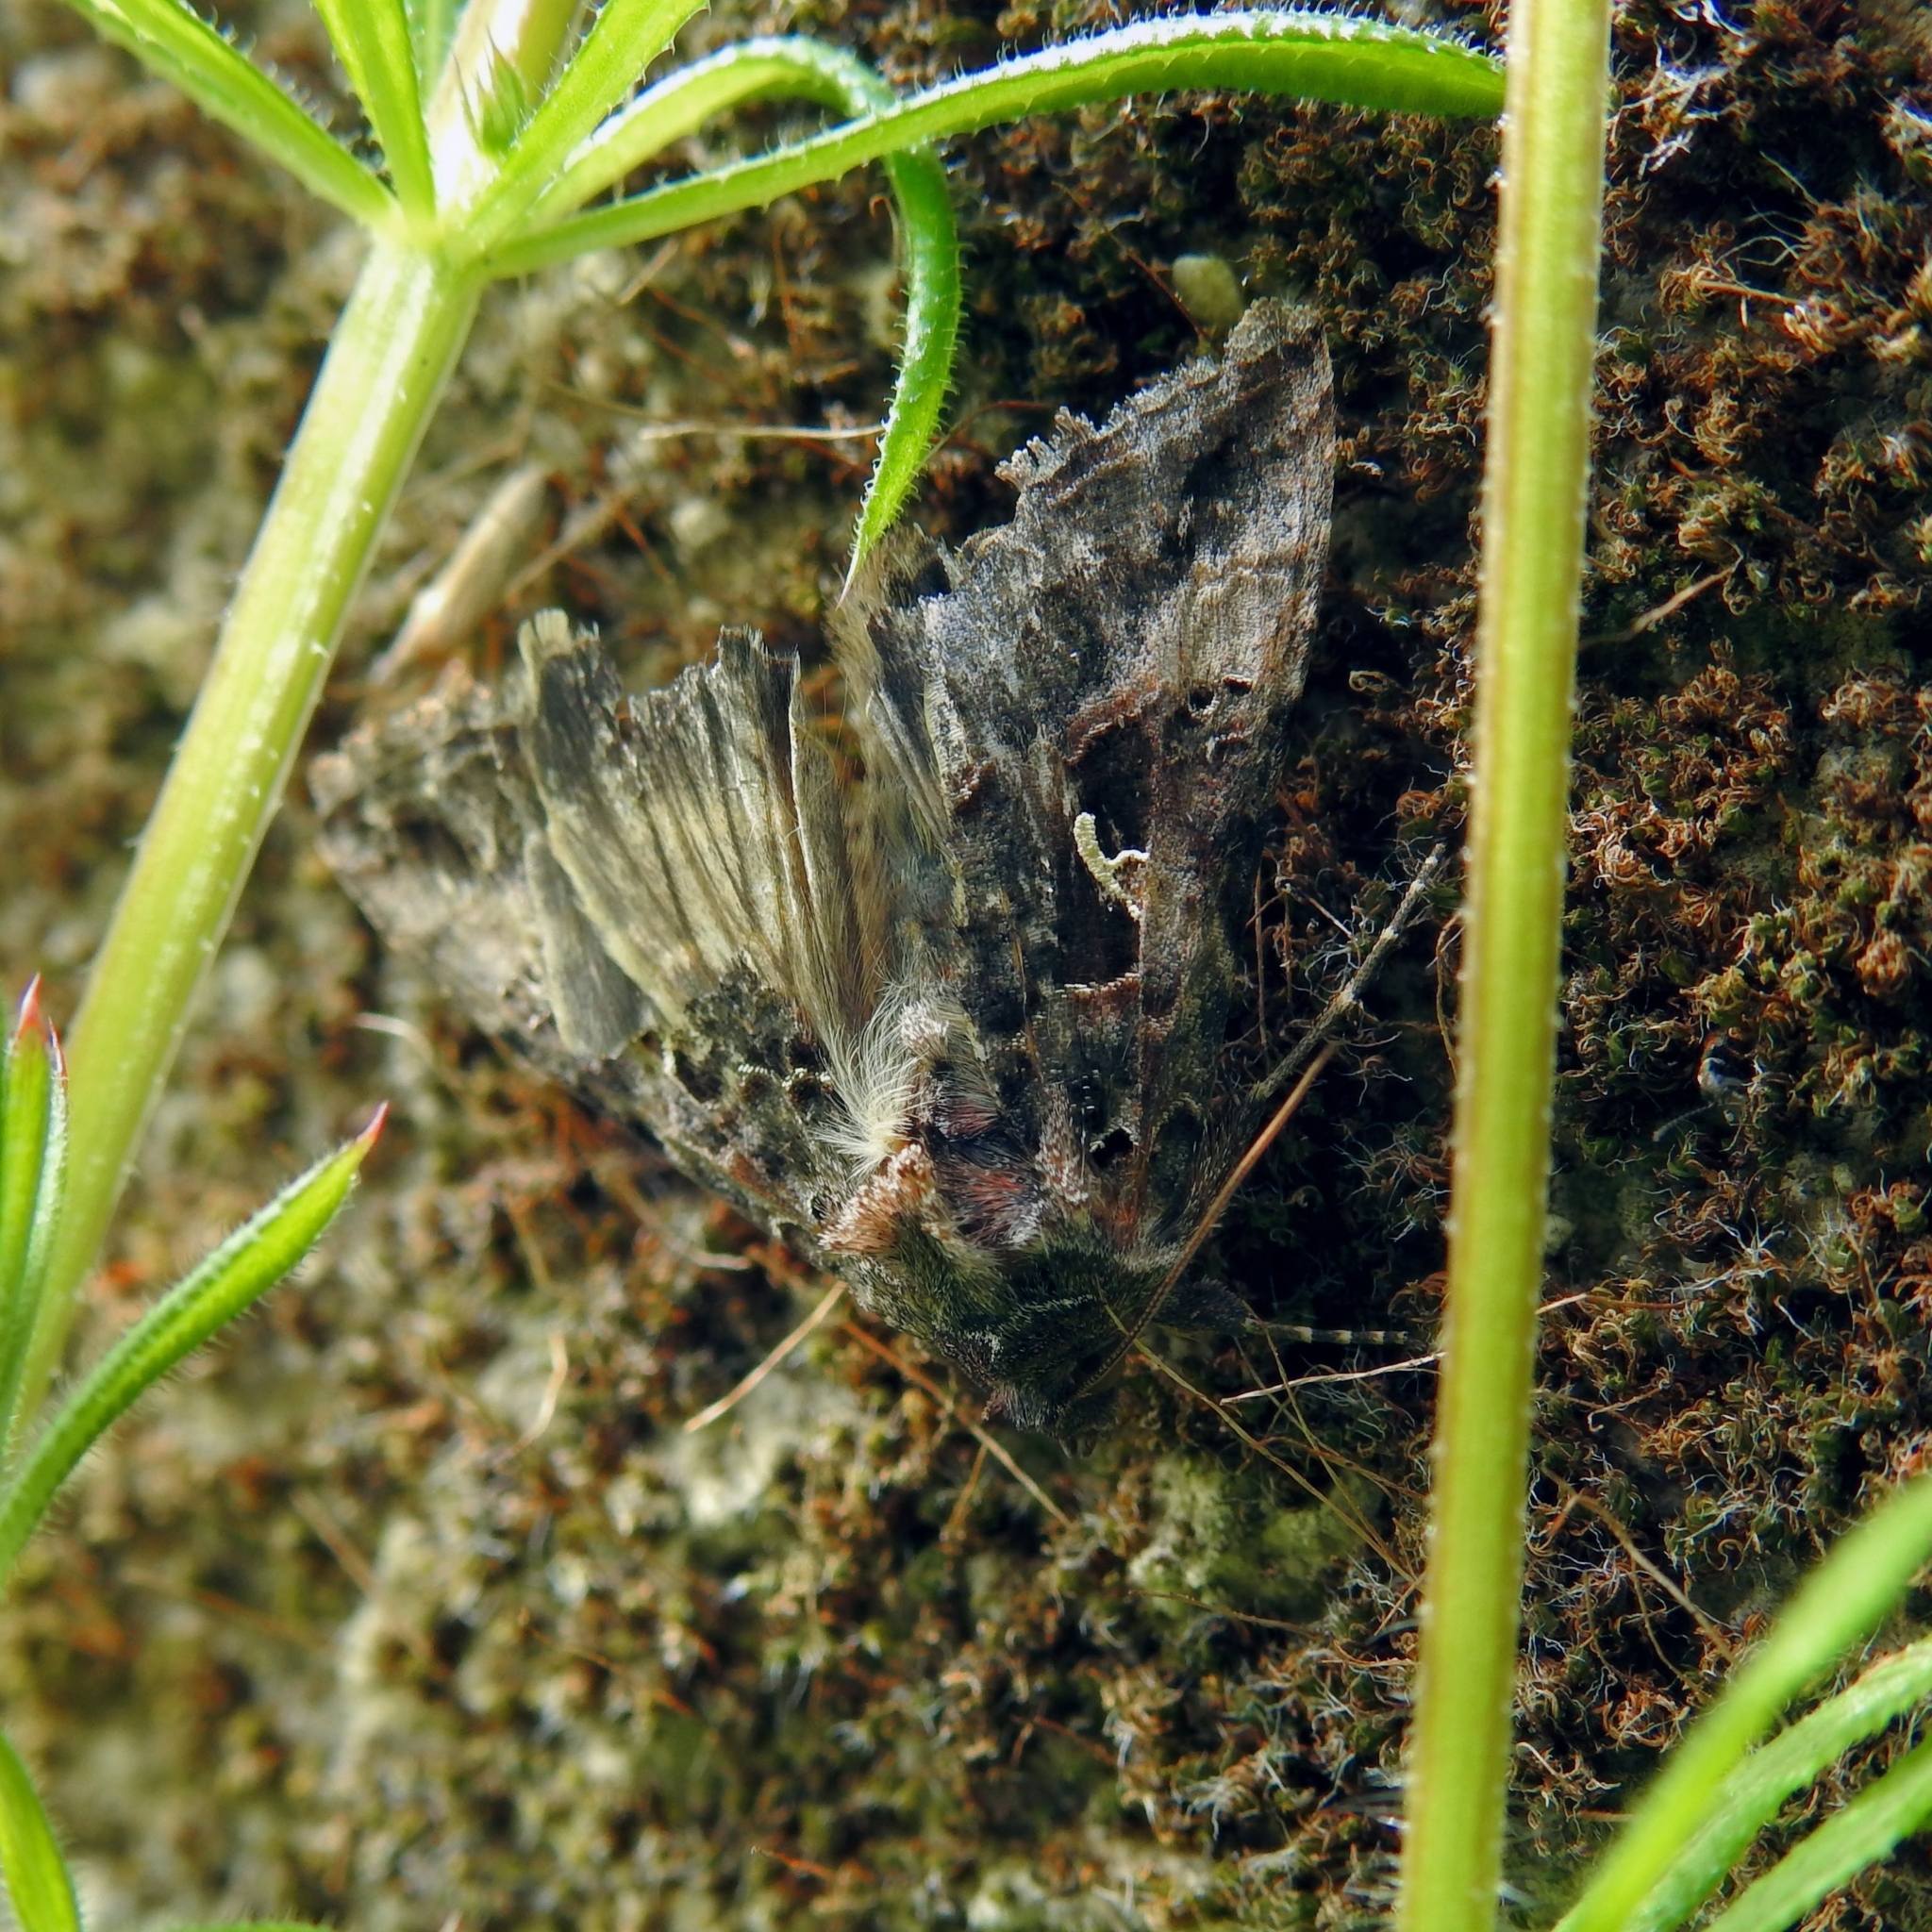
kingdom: Animalia
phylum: Arthropoda
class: Insecta
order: Lepidoptera
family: Noctuidae
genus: Autographa
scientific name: Autographa gamma
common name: Silver y
